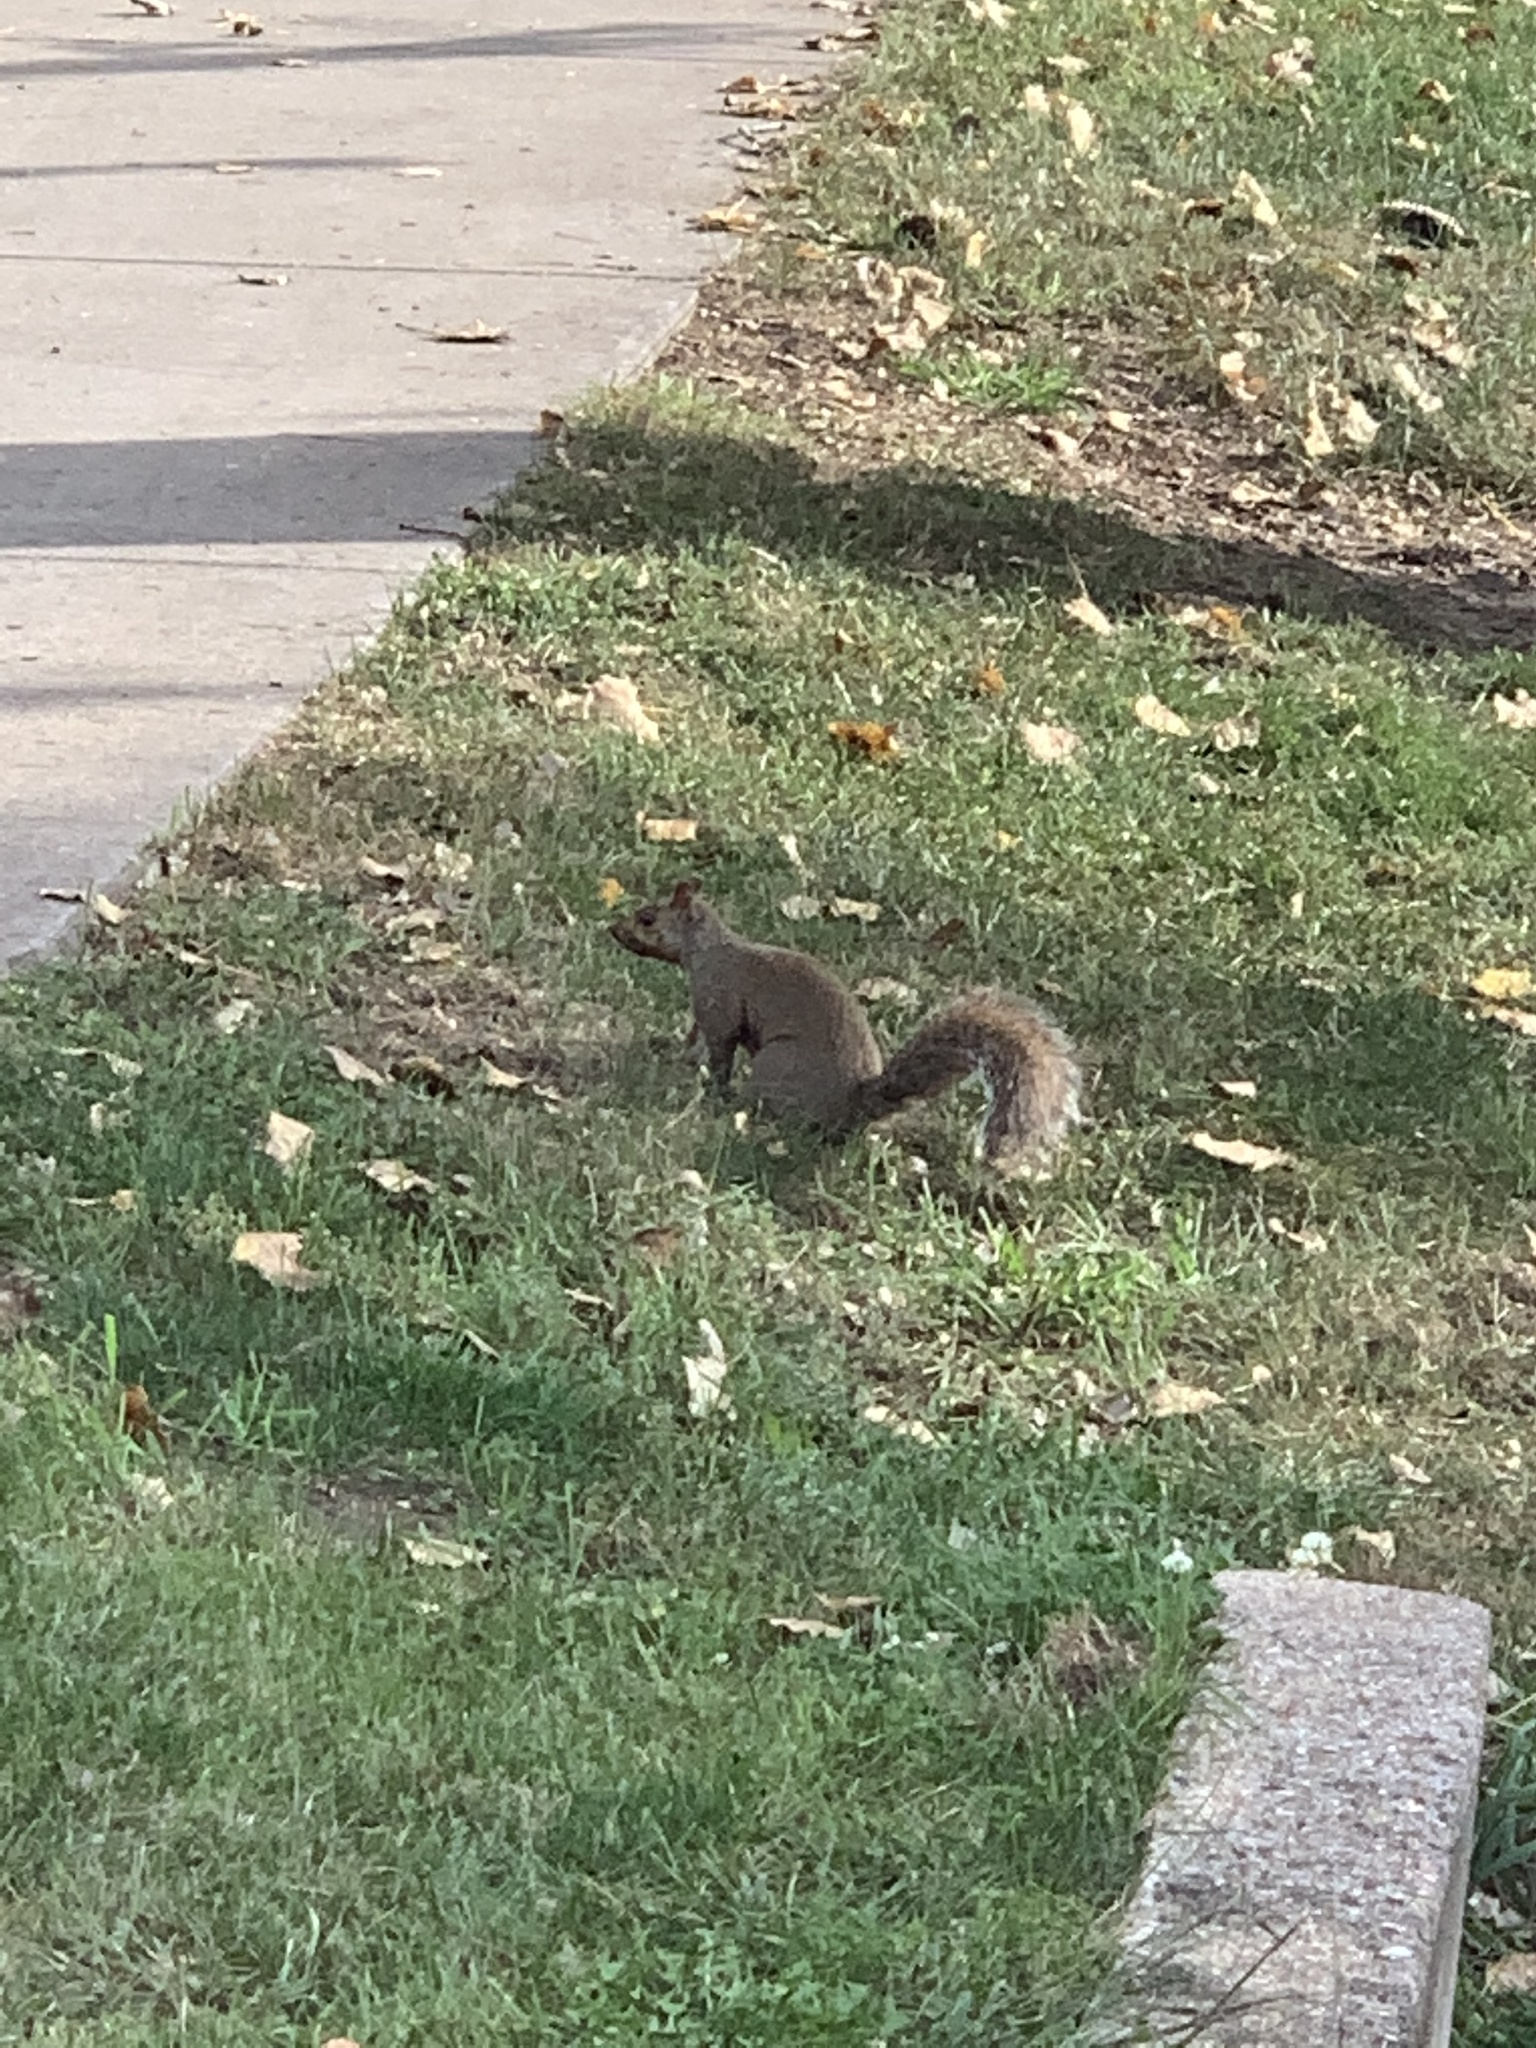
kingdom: Animalia
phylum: Chordata
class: Mammalia
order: Rodentia
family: Sciuridae
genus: Sciurus
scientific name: Sciurus carolinensis
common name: Eastern gray squirrel
